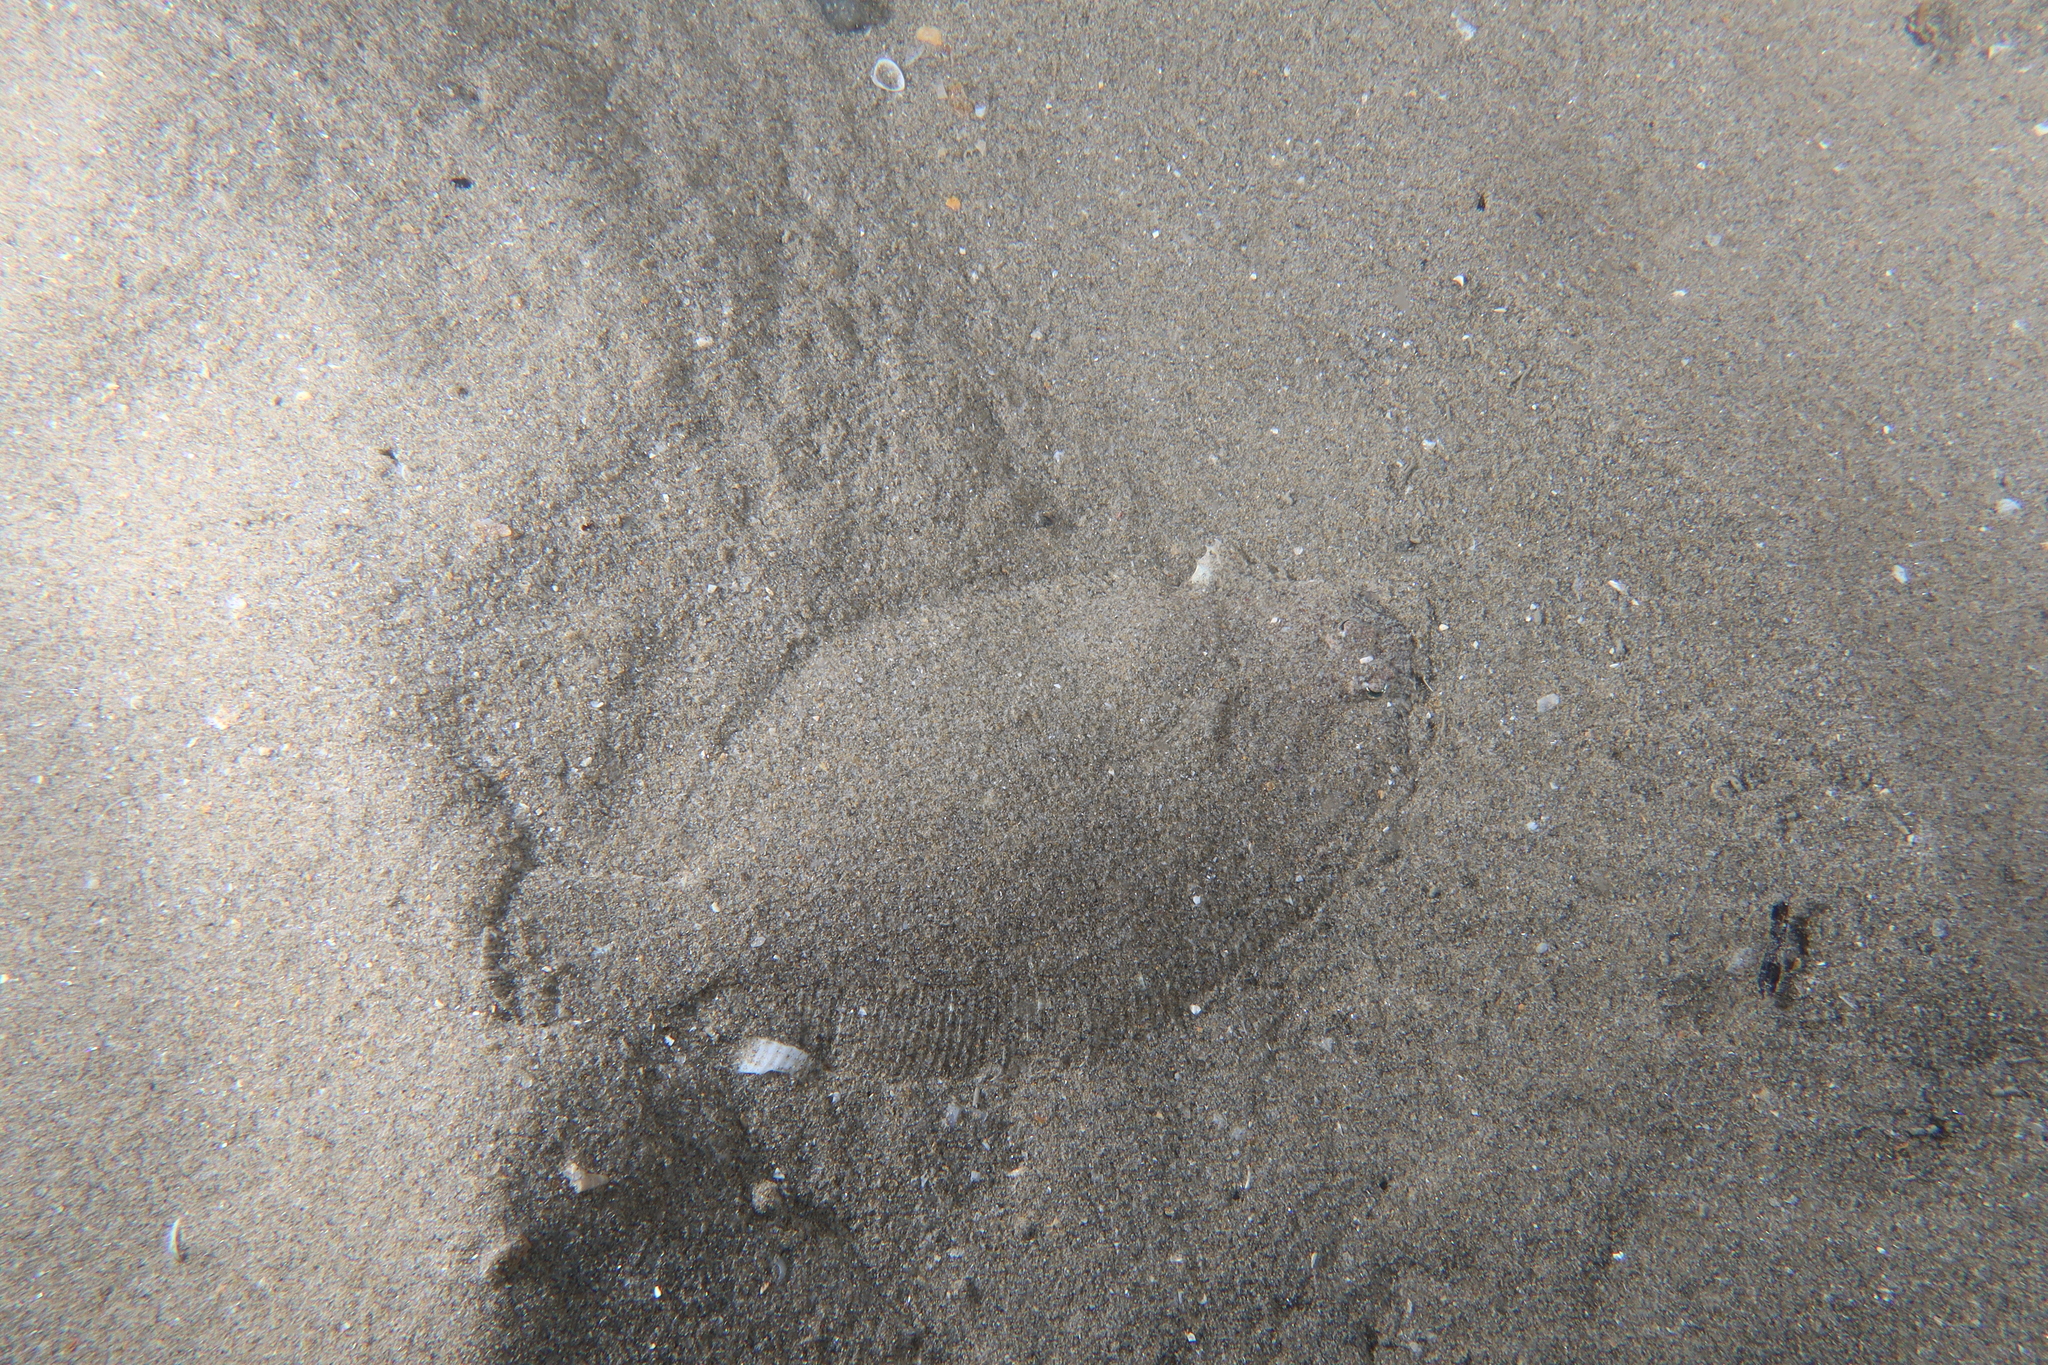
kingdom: Animalia
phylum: Chordata
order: Pleuronectiformes
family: Bothidae
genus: Arnoglossus
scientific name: Arnoglossus thori
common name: Thor's scaldfish
